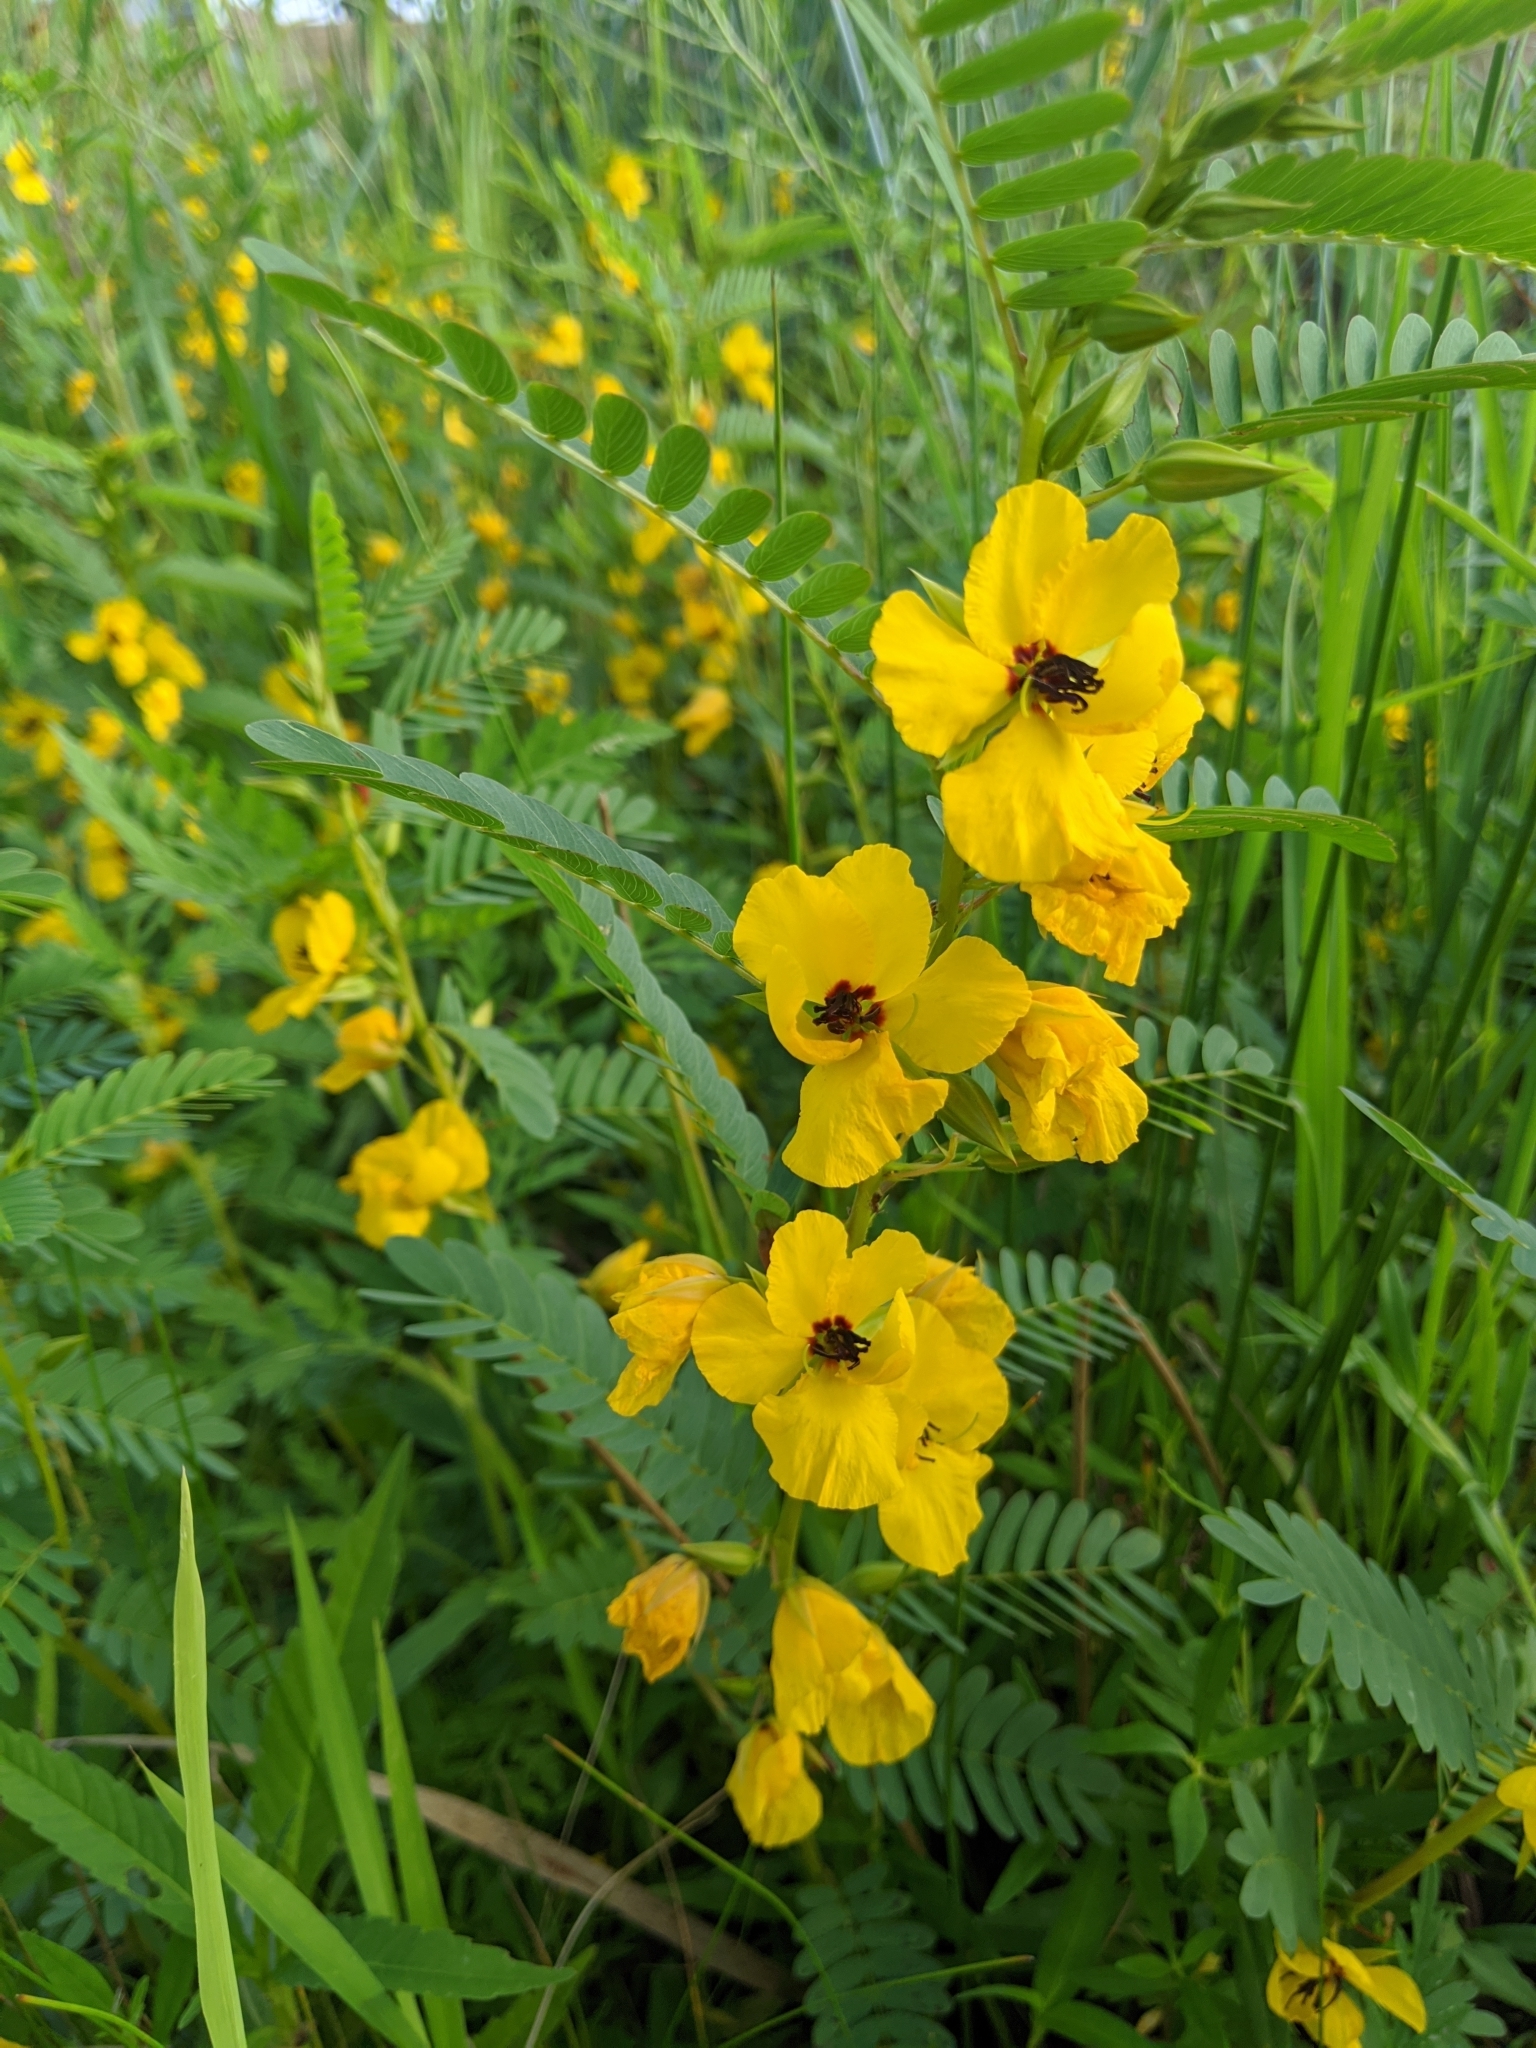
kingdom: Plantae
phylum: Tracheophyta
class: Magnoliopsida
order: Fabales
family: Fabaceae
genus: Chamaecrista
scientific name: Chamaecrista fasciculata
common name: Golden cassia
